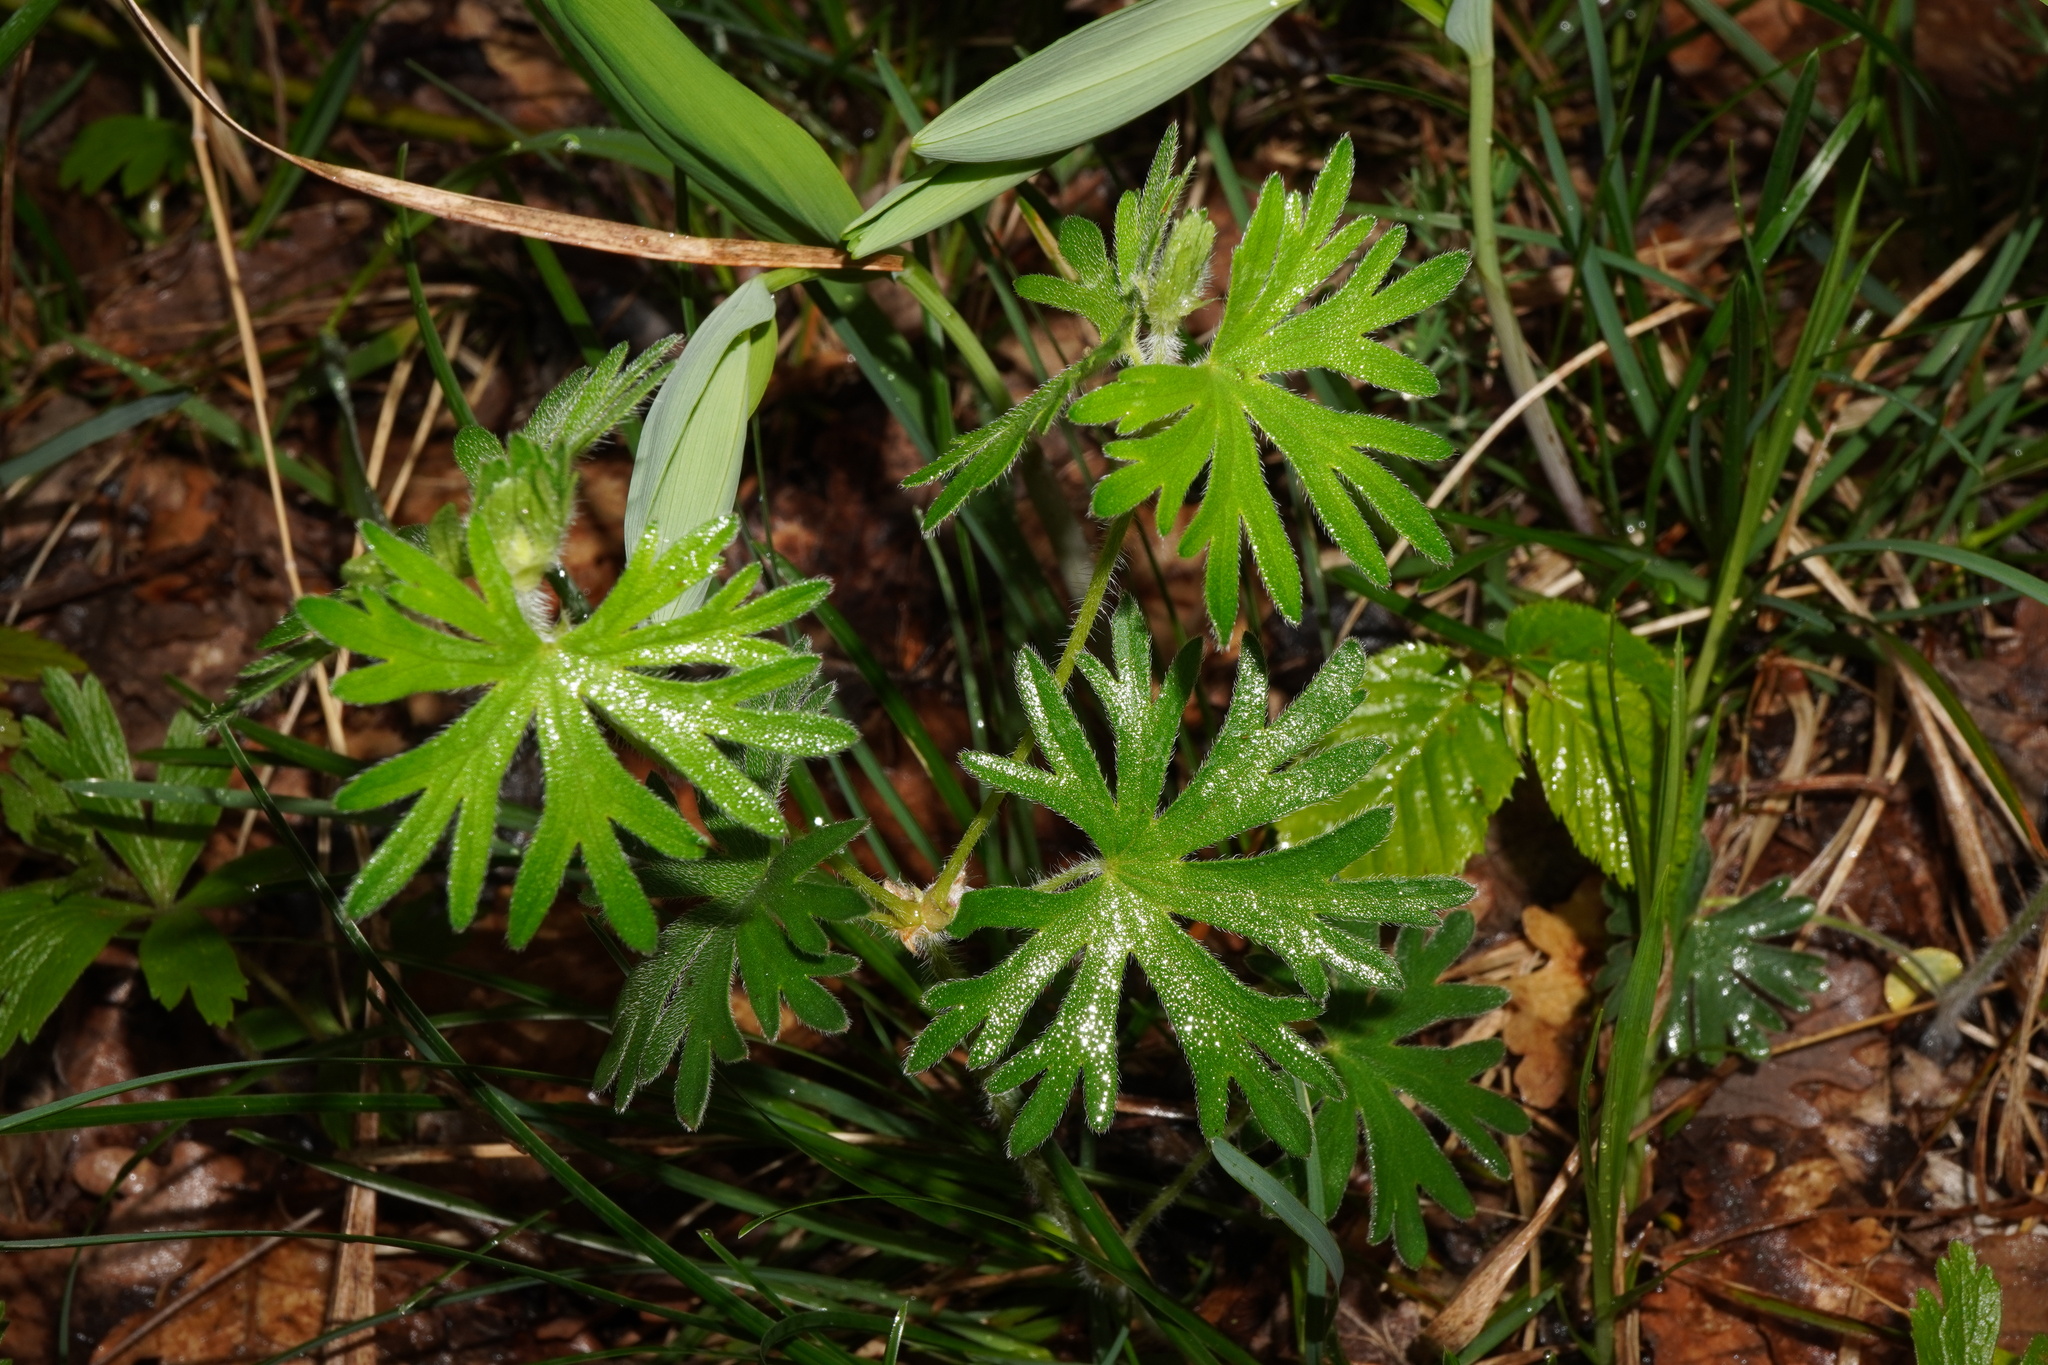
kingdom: Plantae
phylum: Tracheophyta
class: Magnoliopsida
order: Geraniales
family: Geraniaceae
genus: Geranium
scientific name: Geranium sanguineum
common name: Bloody crane's-bill
